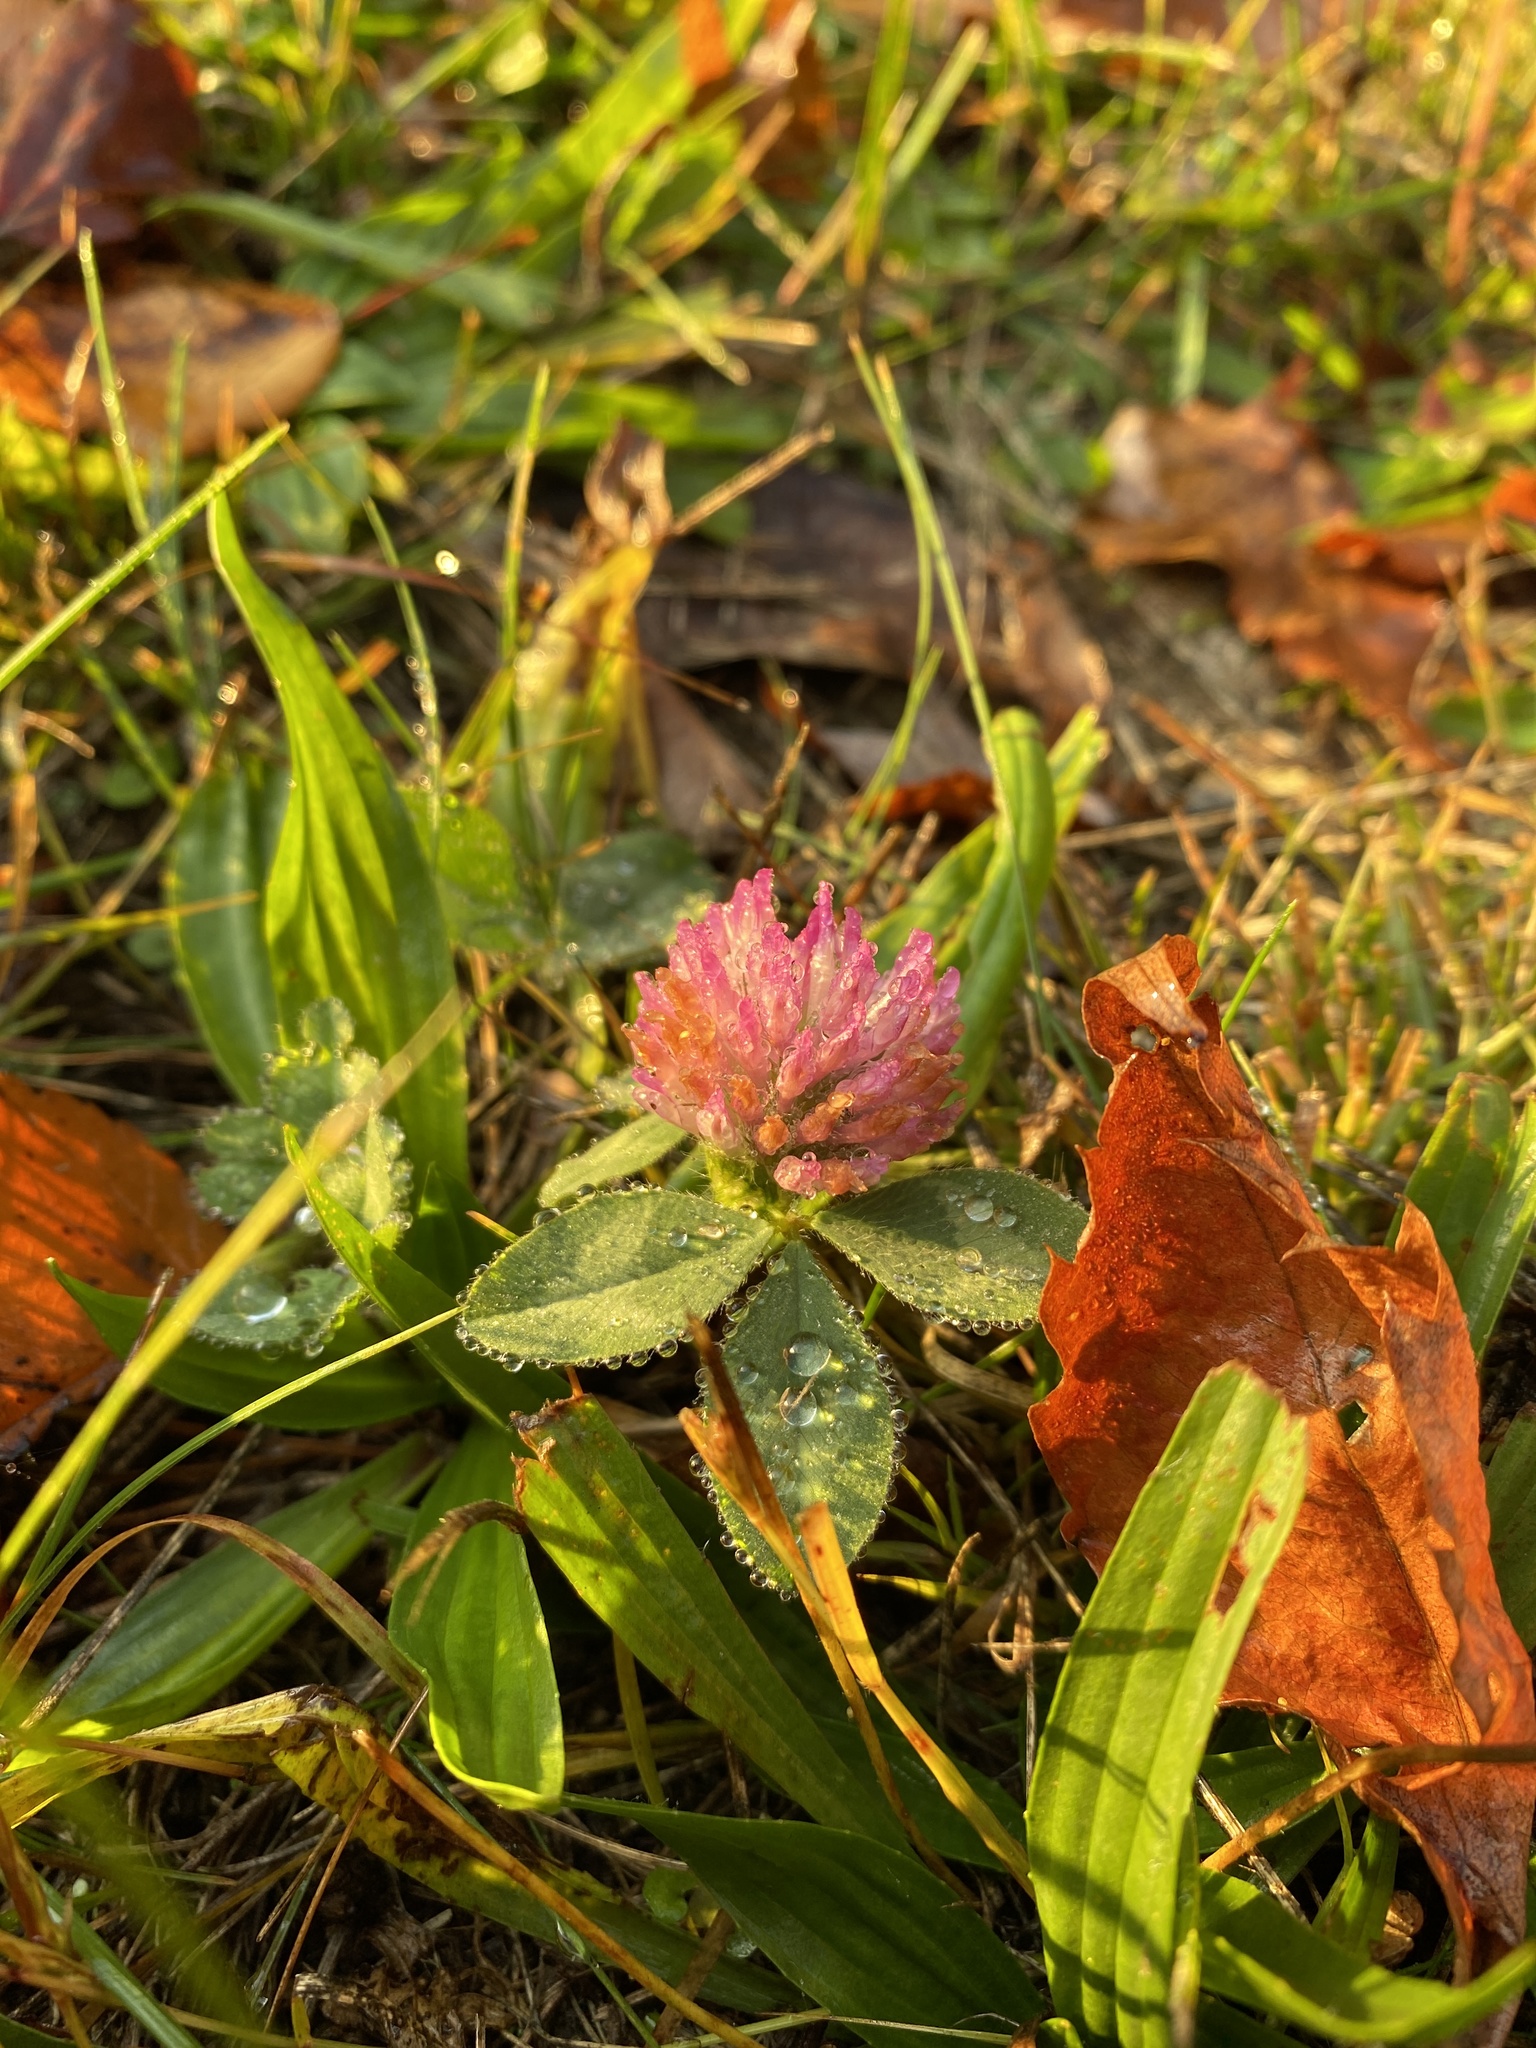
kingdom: Plantae
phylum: Tracheophyta
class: Magnoliopsida
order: Fabales
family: Fabaceae
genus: Trifolium
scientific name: Trifolium pratense
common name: Red clover
